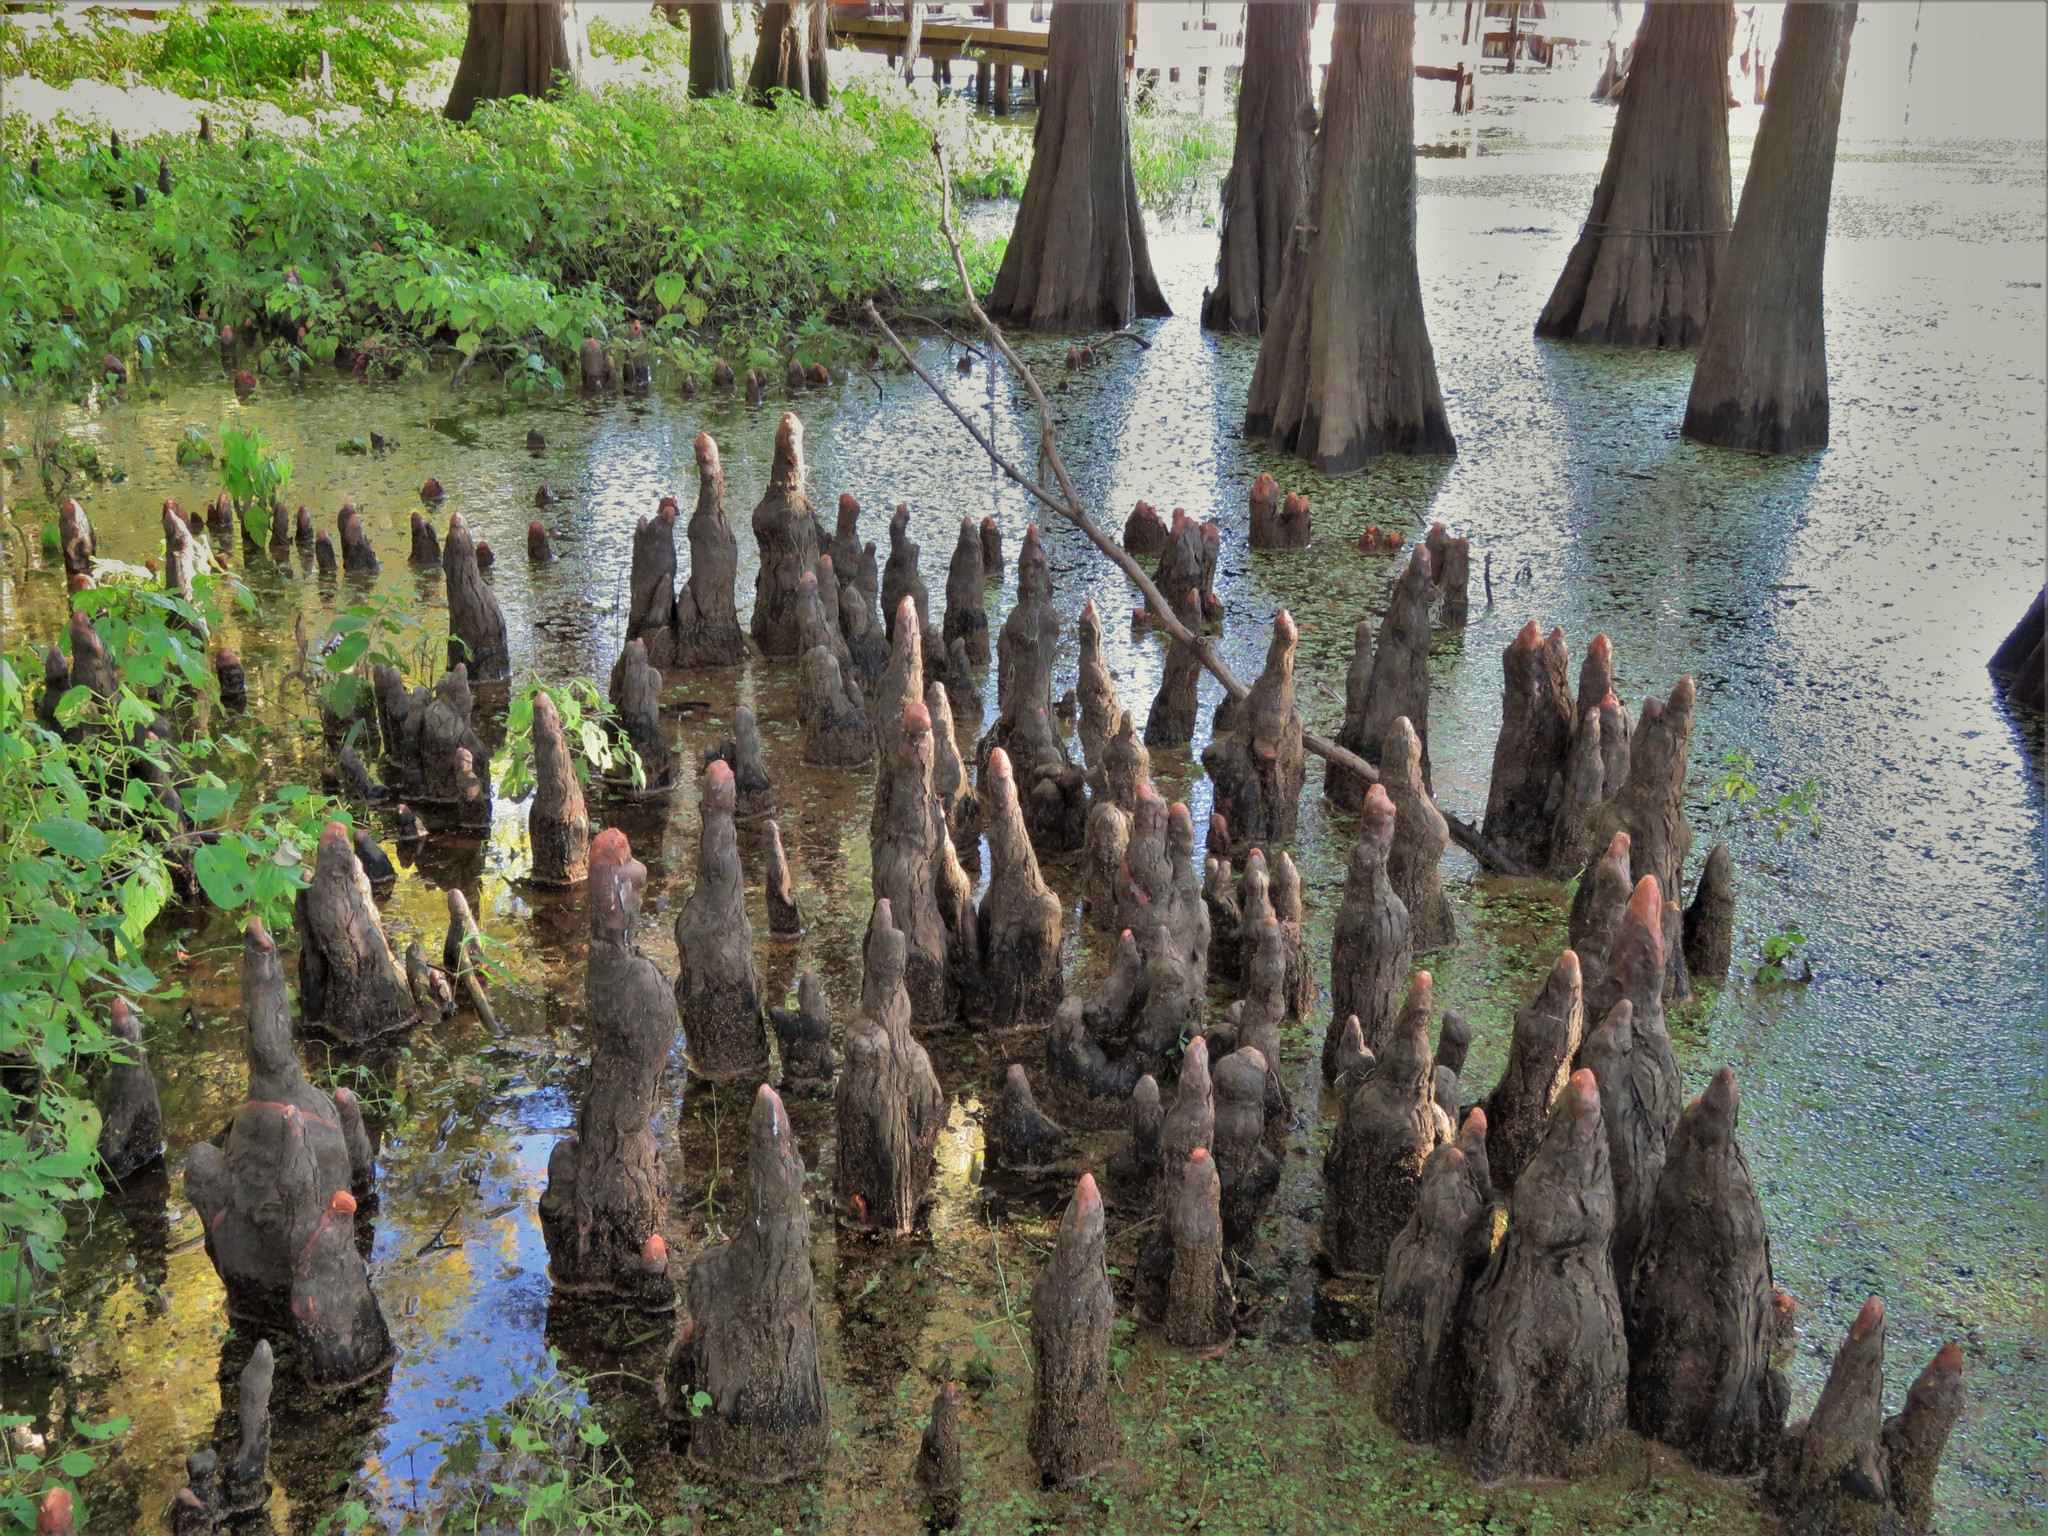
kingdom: Plantae
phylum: Tracheophyta
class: Pinopsida
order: Pinales
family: Cupressaceae
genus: Taxodium
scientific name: Taxodium distichum
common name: Bald cypress
